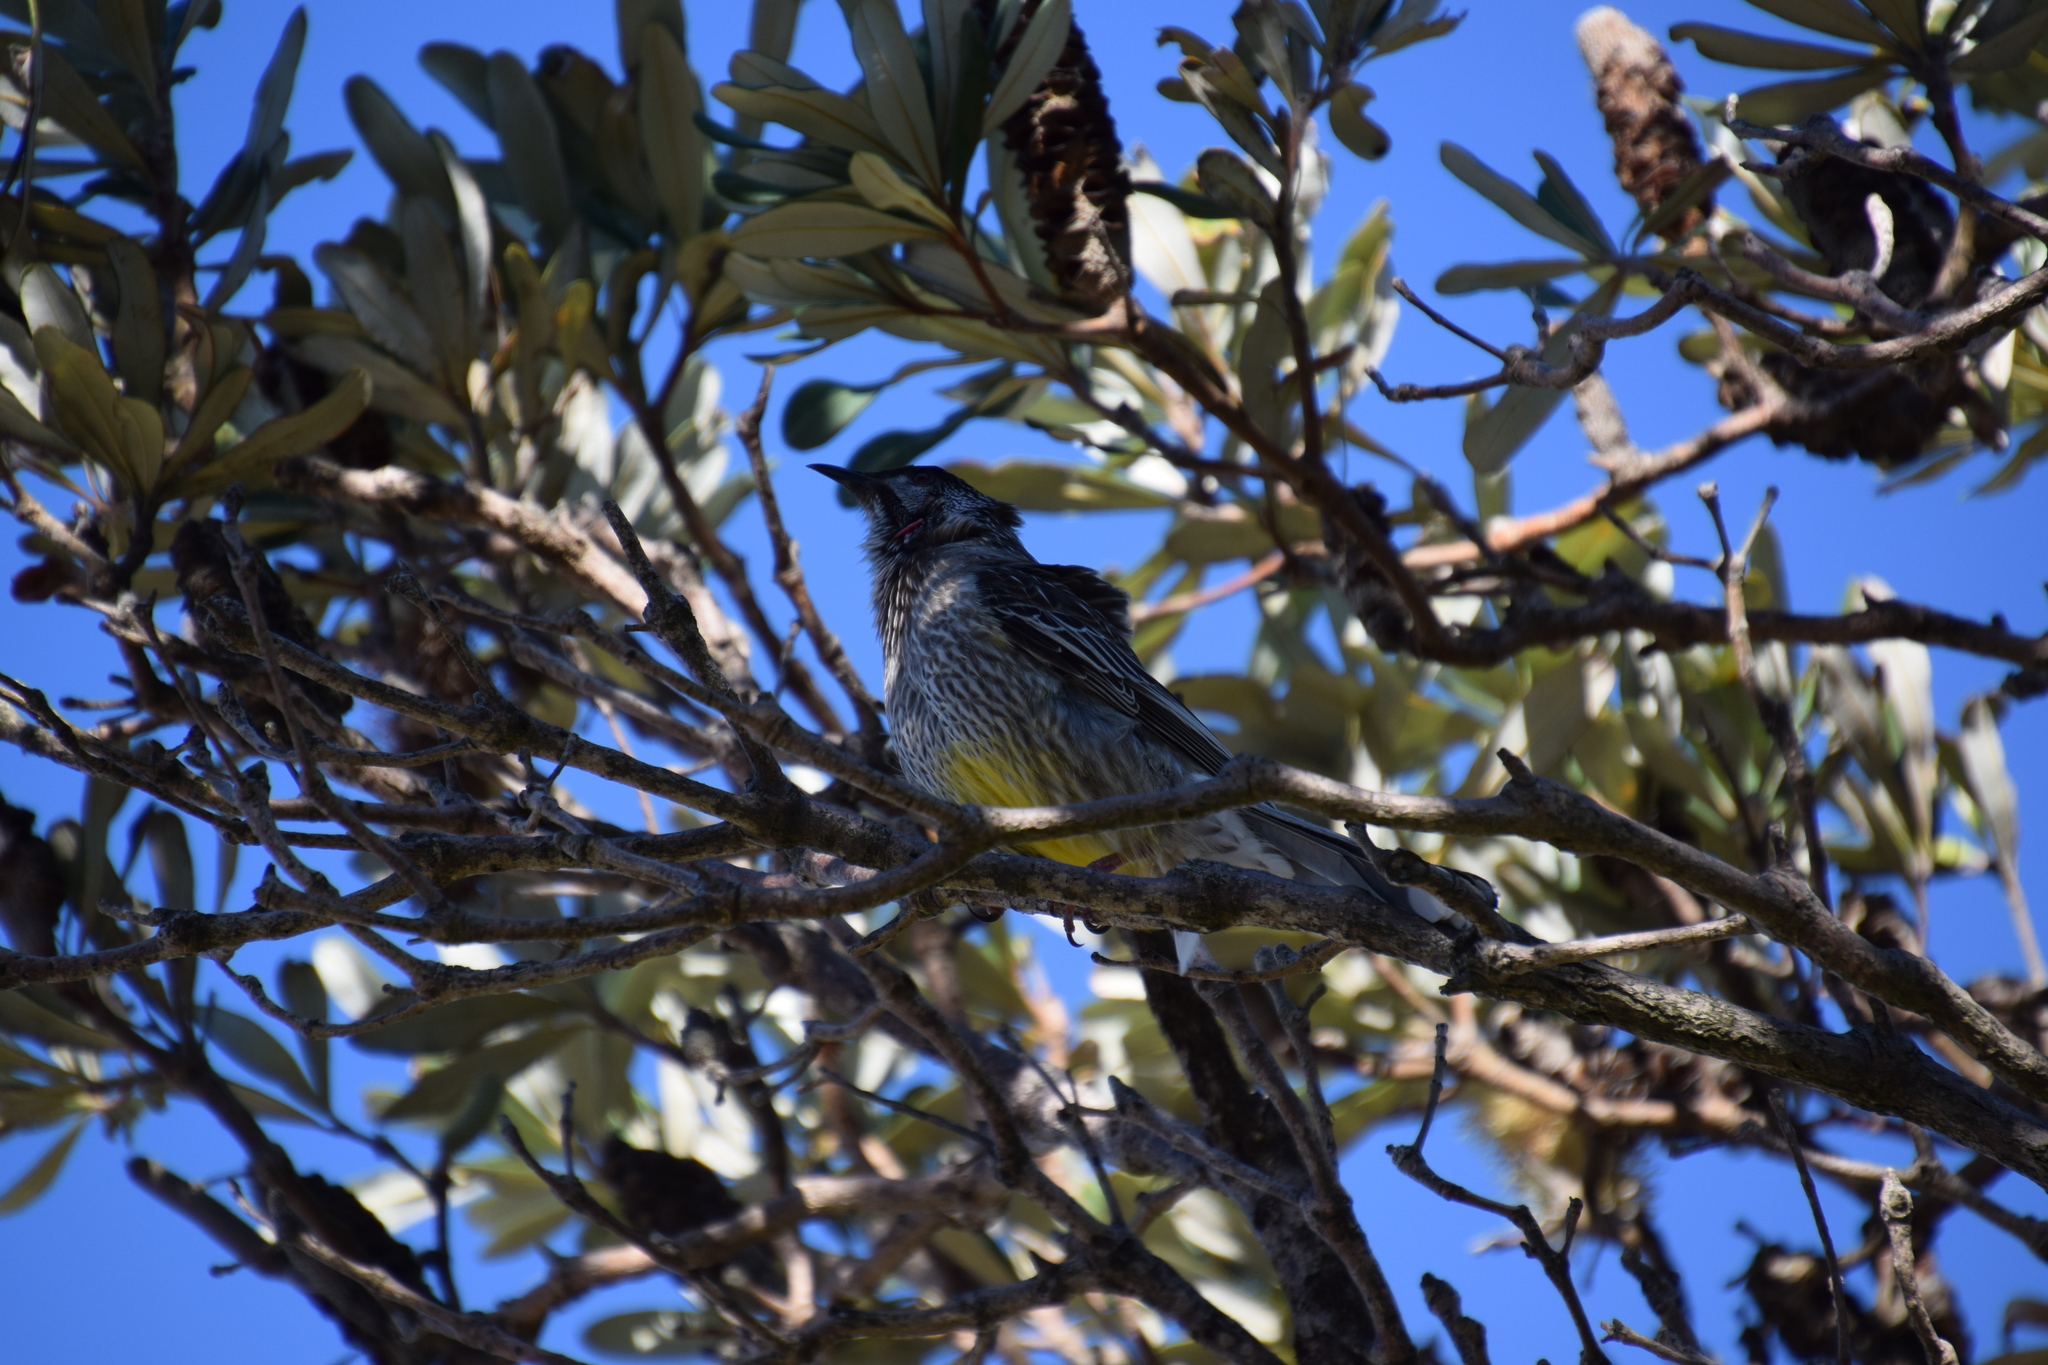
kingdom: Animalia
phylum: Chordata
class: Aves
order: Passeriformes
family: Meliphagidae
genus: Anthochaera
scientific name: Anthochaera carunculata
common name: Red wattlebird
